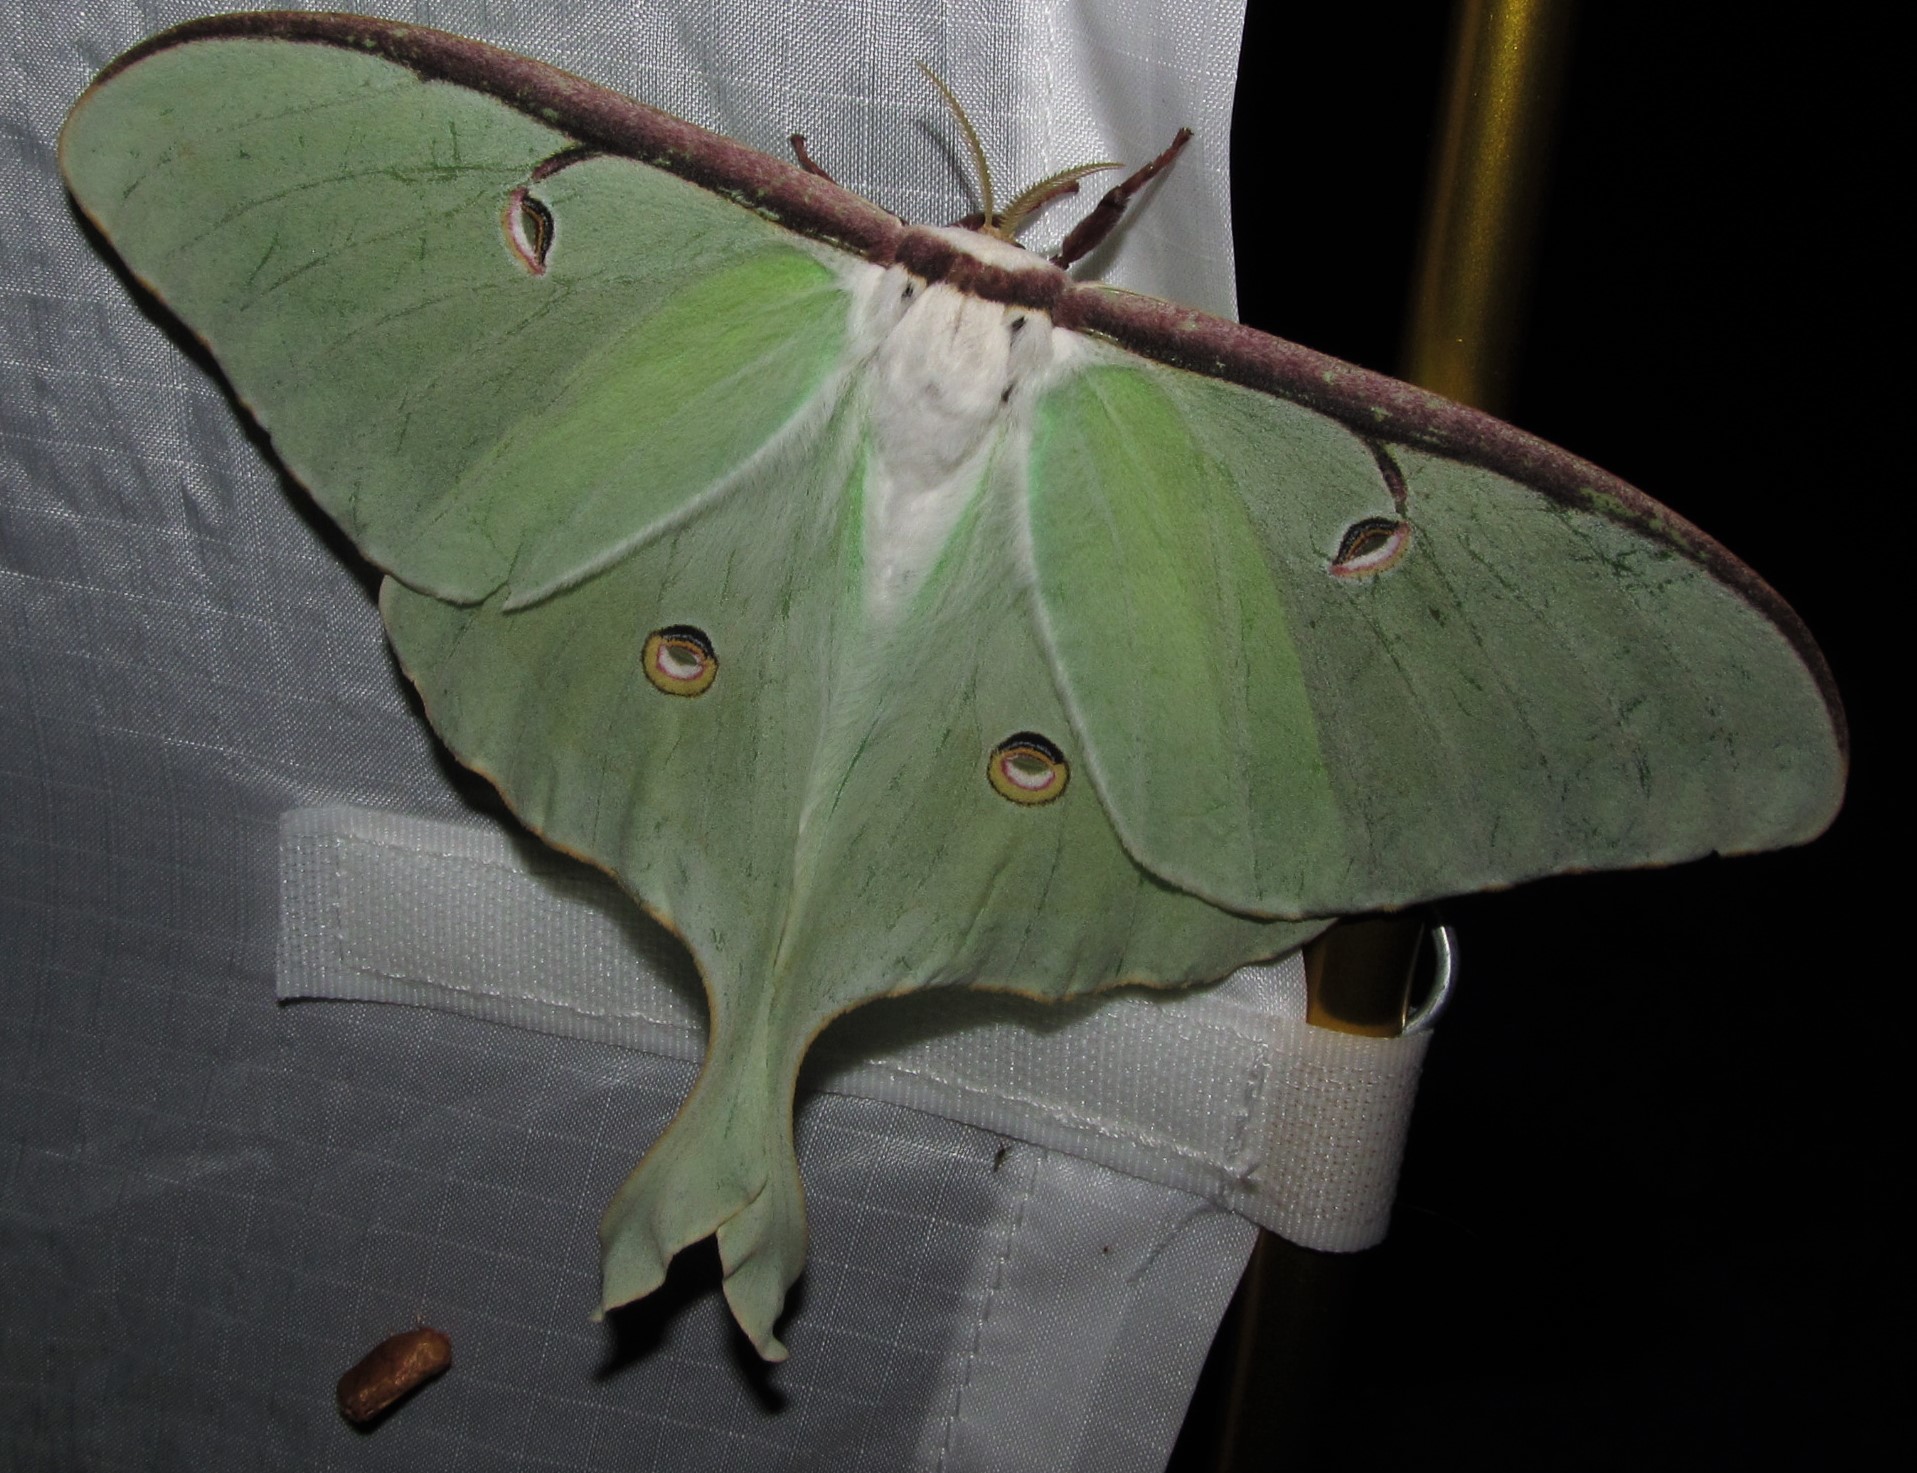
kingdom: Animalia
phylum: Arthropoda
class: Insecta
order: Lepidoptera
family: Saturniidae
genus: Actias
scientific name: Actias luna
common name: Luna moth
